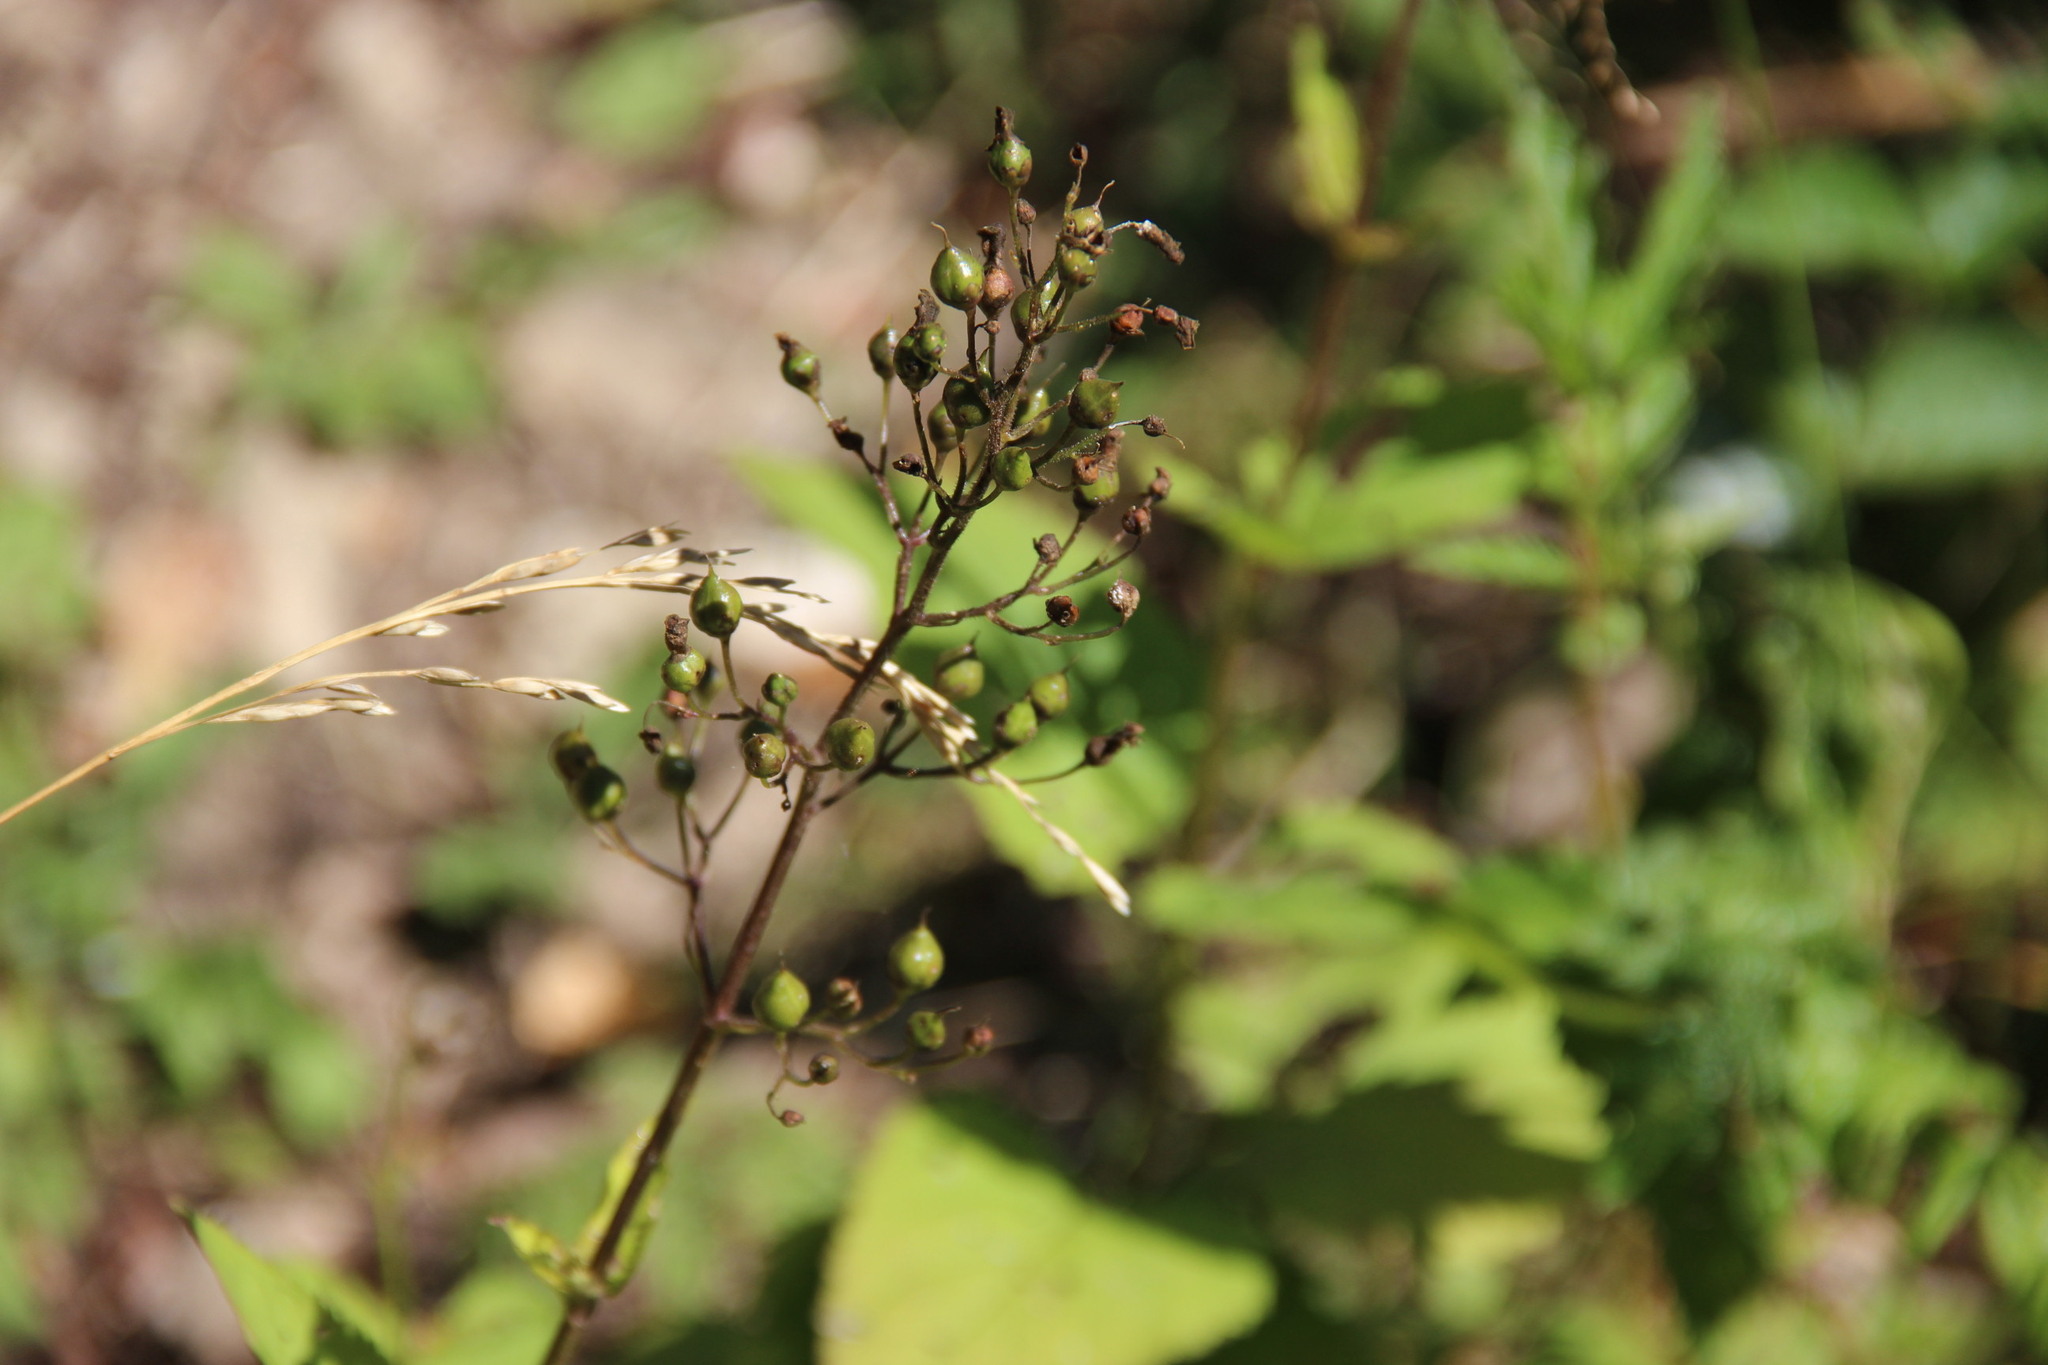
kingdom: Plantae
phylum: Tracheophyta
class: Magnoliopsida
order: Lamiales
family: Scrophulariaceae
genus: Scrophularia
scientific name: Scrophularia nodosa
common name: Common figwort
